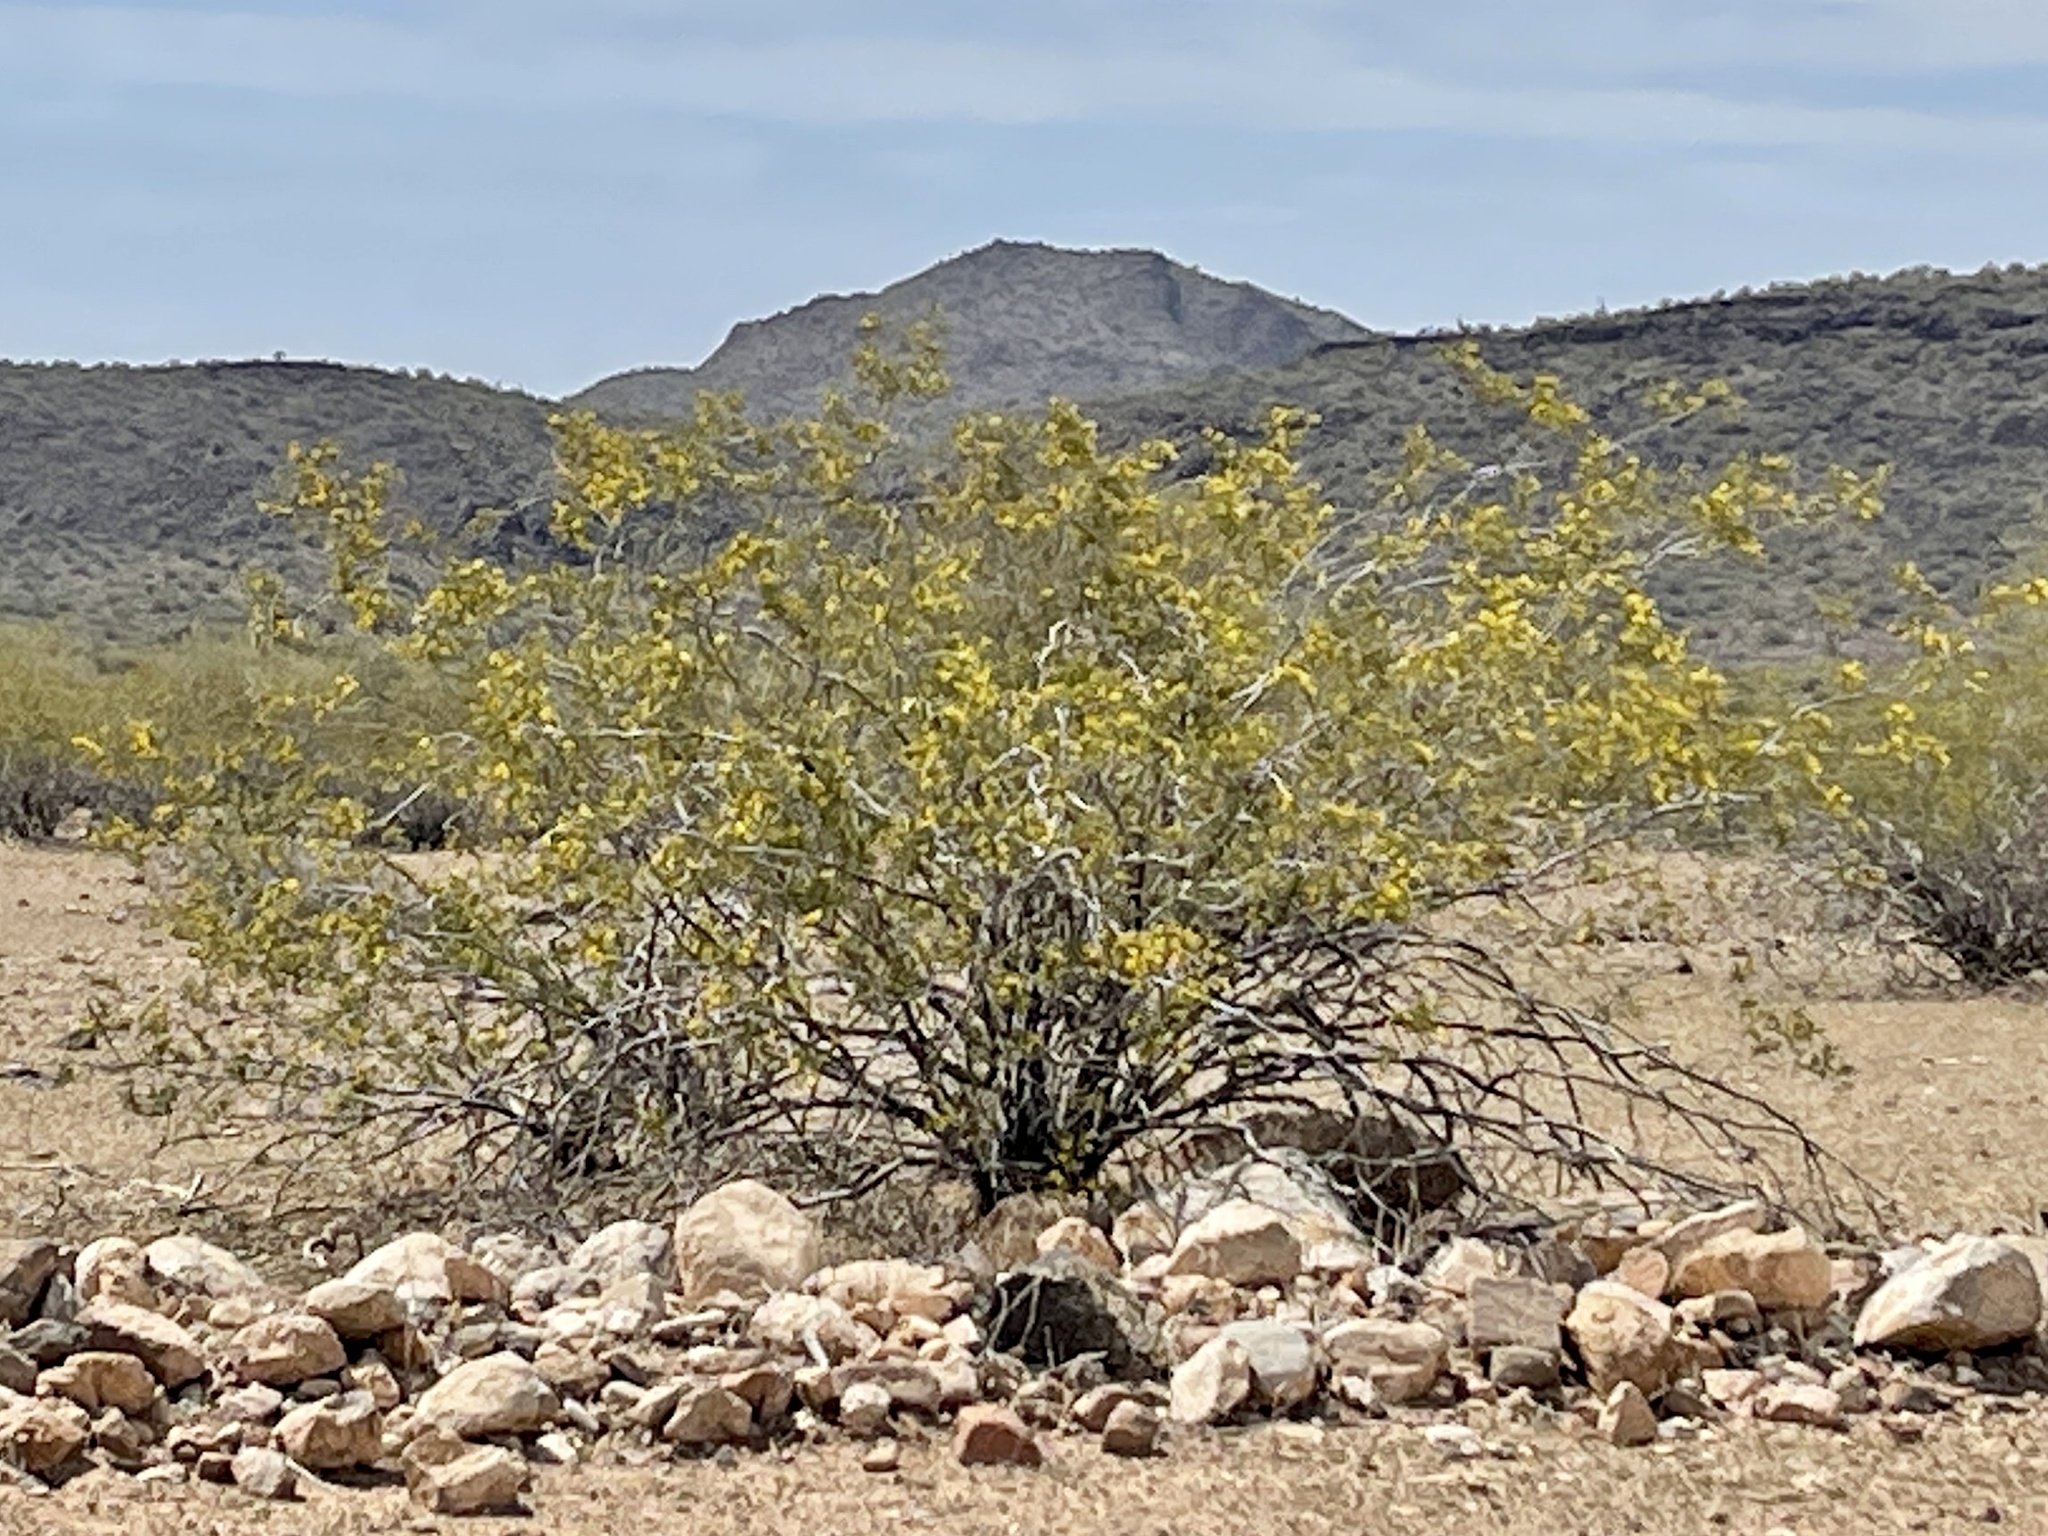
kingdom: Plantae
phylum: Tracheophyta
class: Magnoliopsida
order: Zygophyllales
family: Zygophyllaceae
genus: Larrea
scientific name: Larrea tridentata
